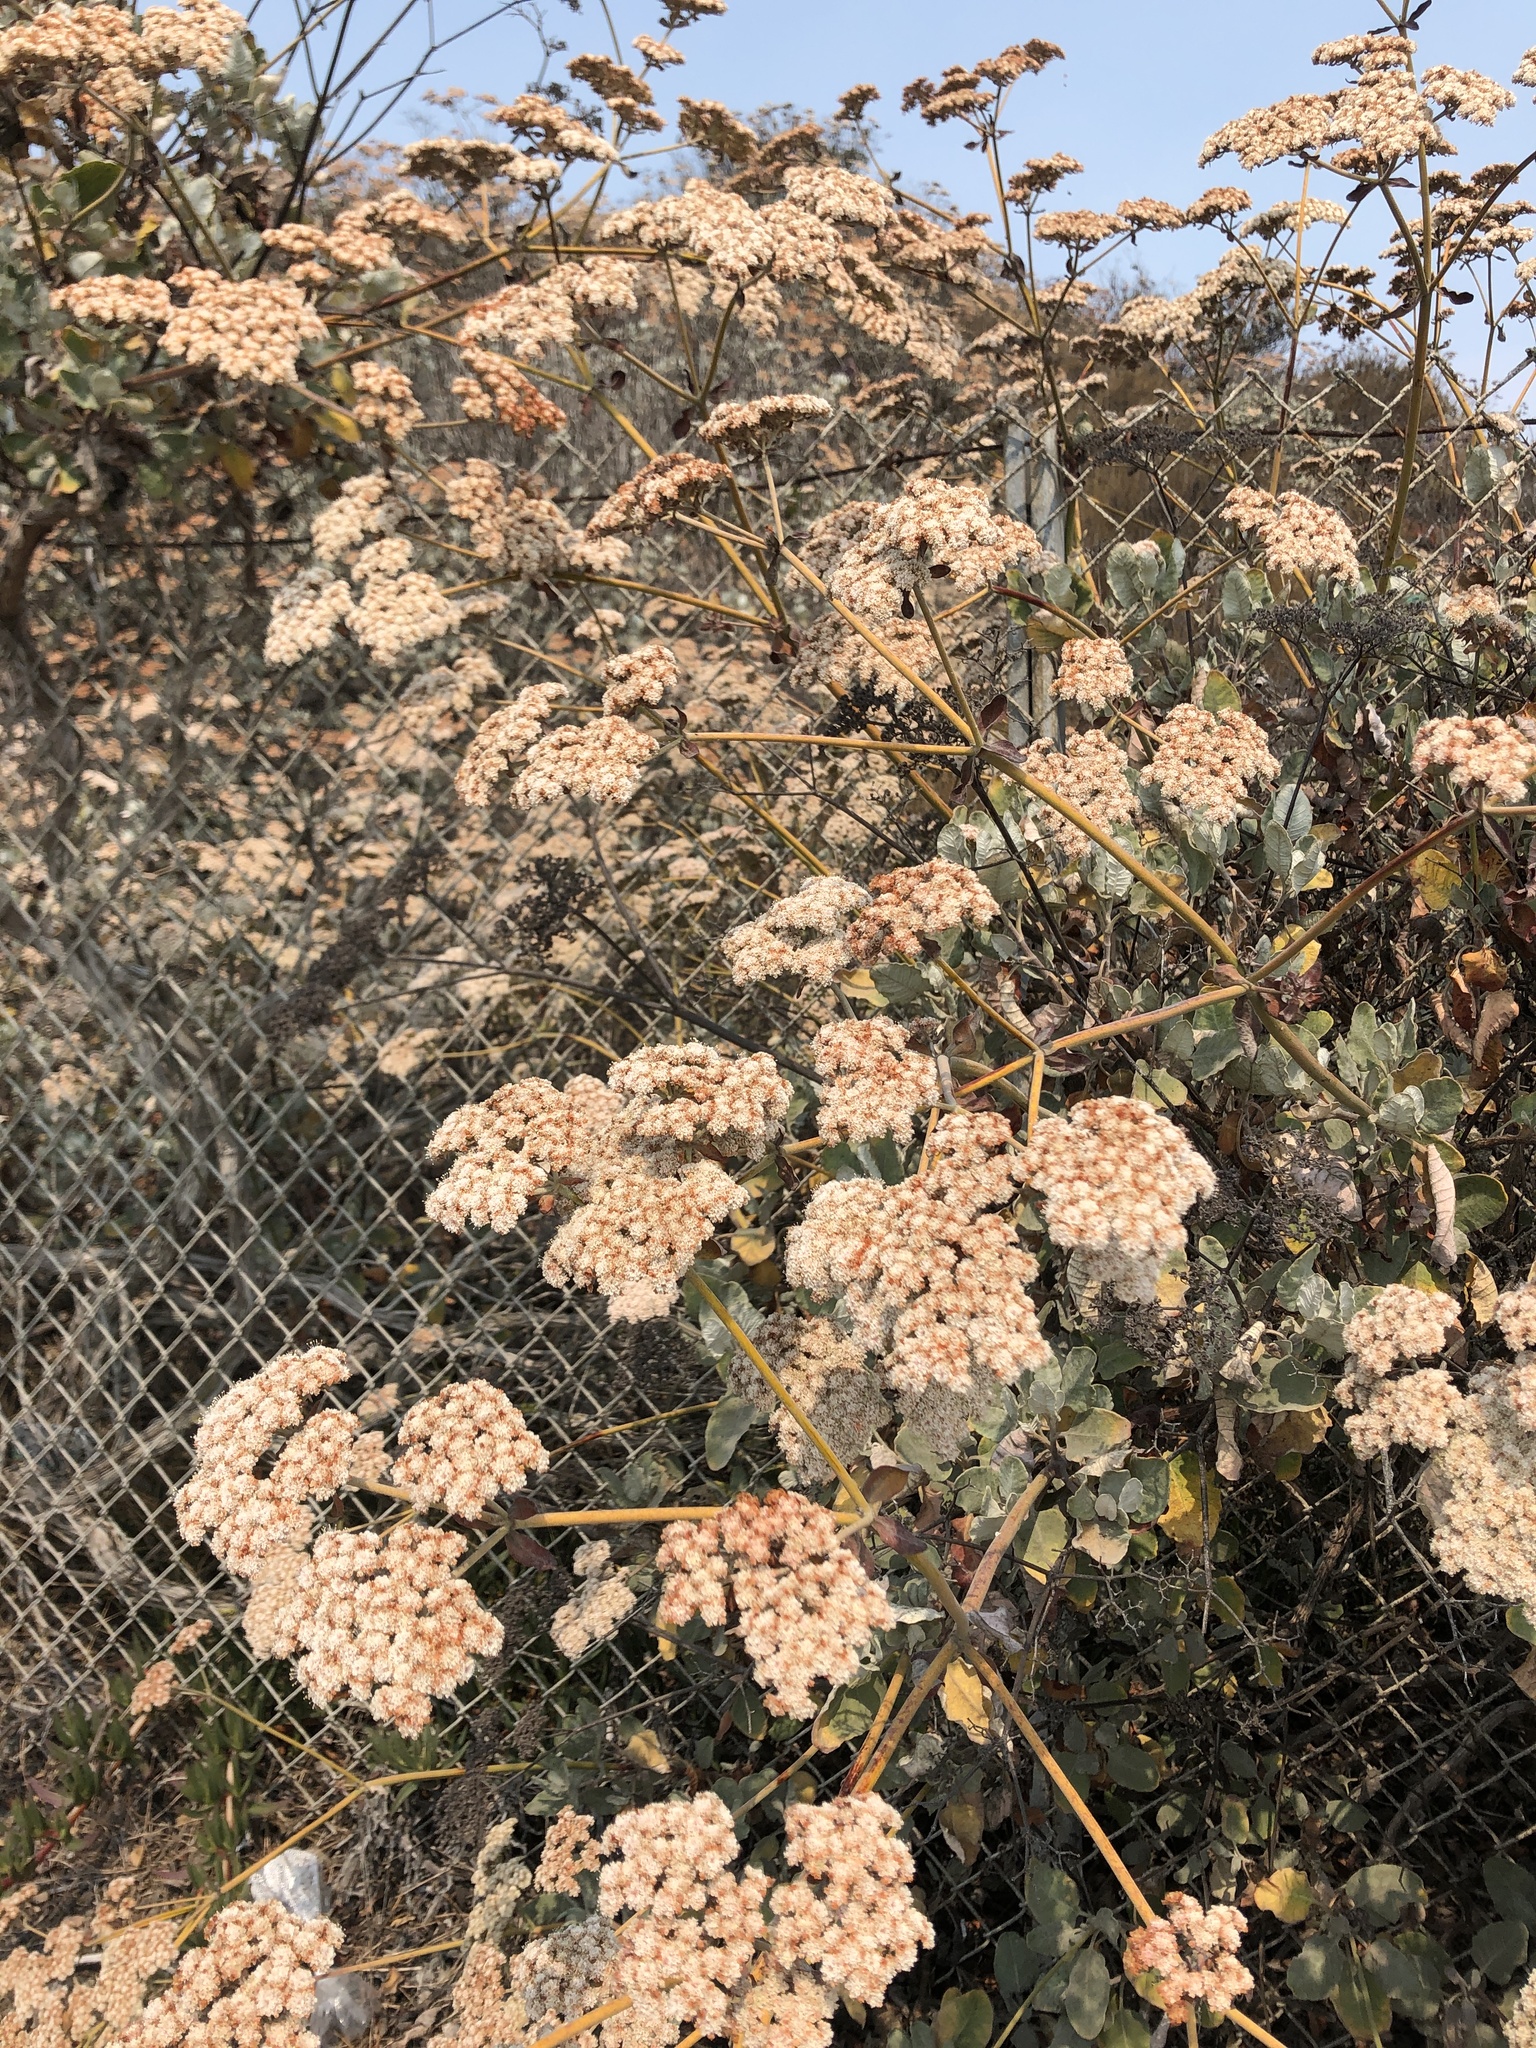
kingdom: Plantae
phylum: Tracheophyta
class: Magnoliopsida
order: Caryophyllales
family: Polygonaceae
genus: Eriogonum
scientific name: Eriogonum giganteum
